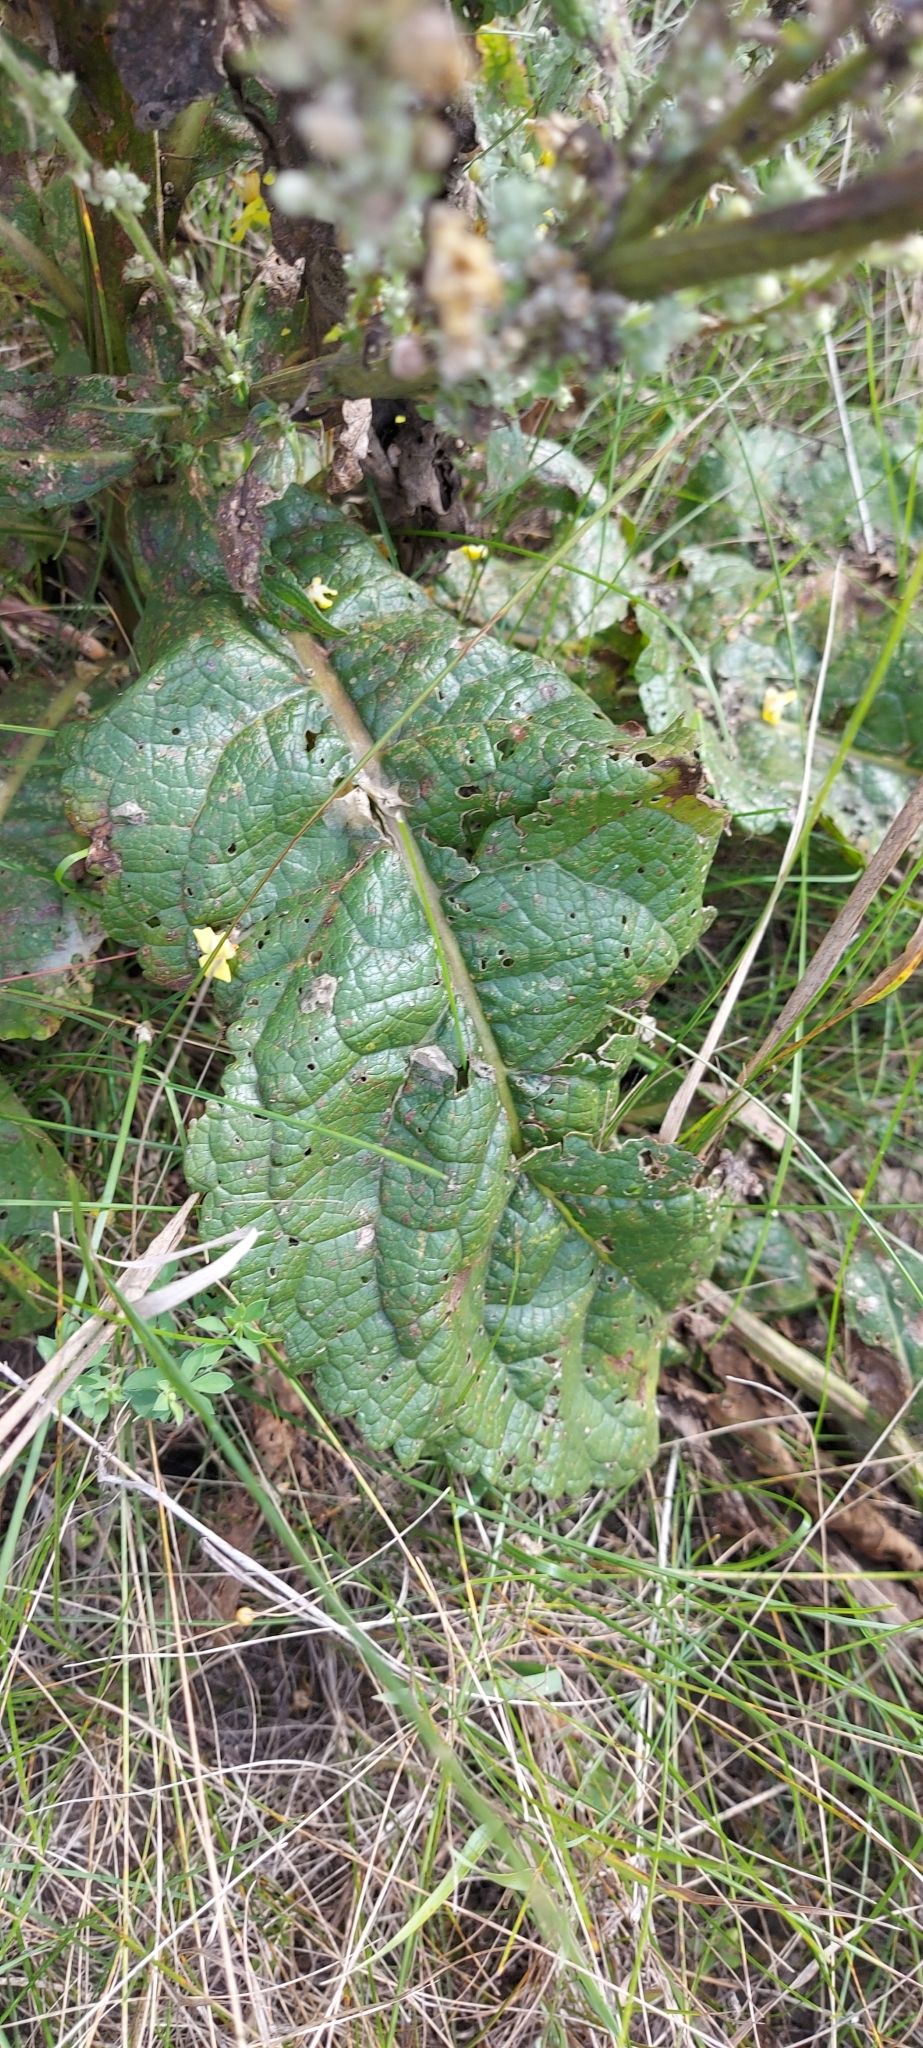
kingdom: Plantae
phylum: Tracheophyta
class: Magnoliopsida
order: Lamiales
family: Scrophulariaceae
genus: Verbascum
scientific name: Verbascum lychnitis
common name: White mullein
